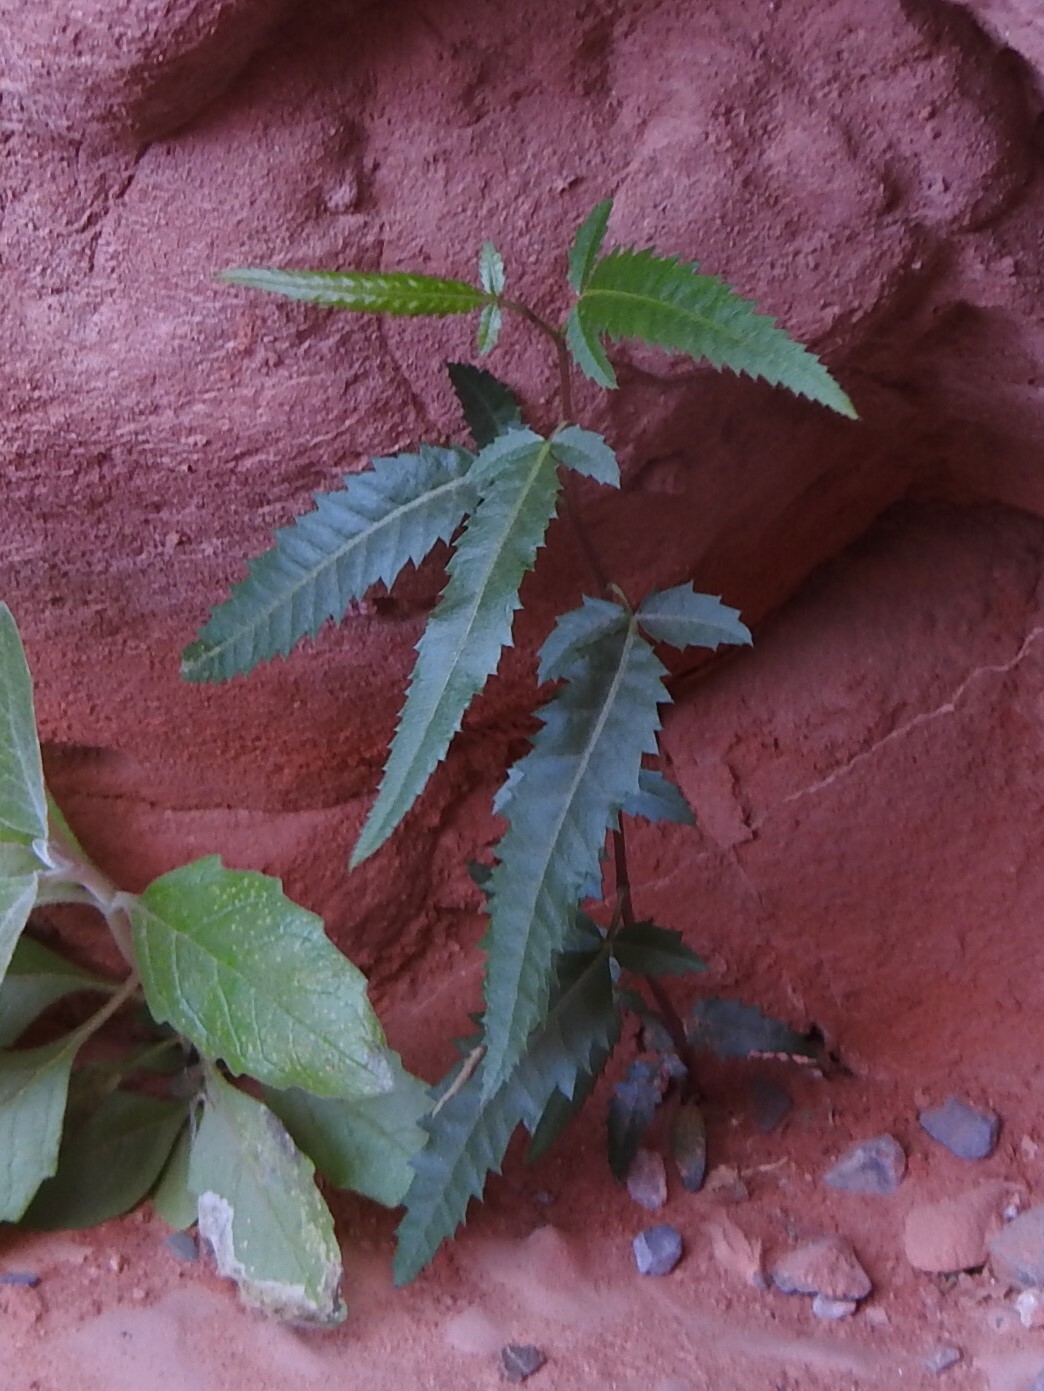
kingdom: Plantae
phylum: Tracheophyta
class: Magnoliopsida
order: Sapindales
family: Anacardiaceae
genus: Schinus
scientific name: Schinus areira
